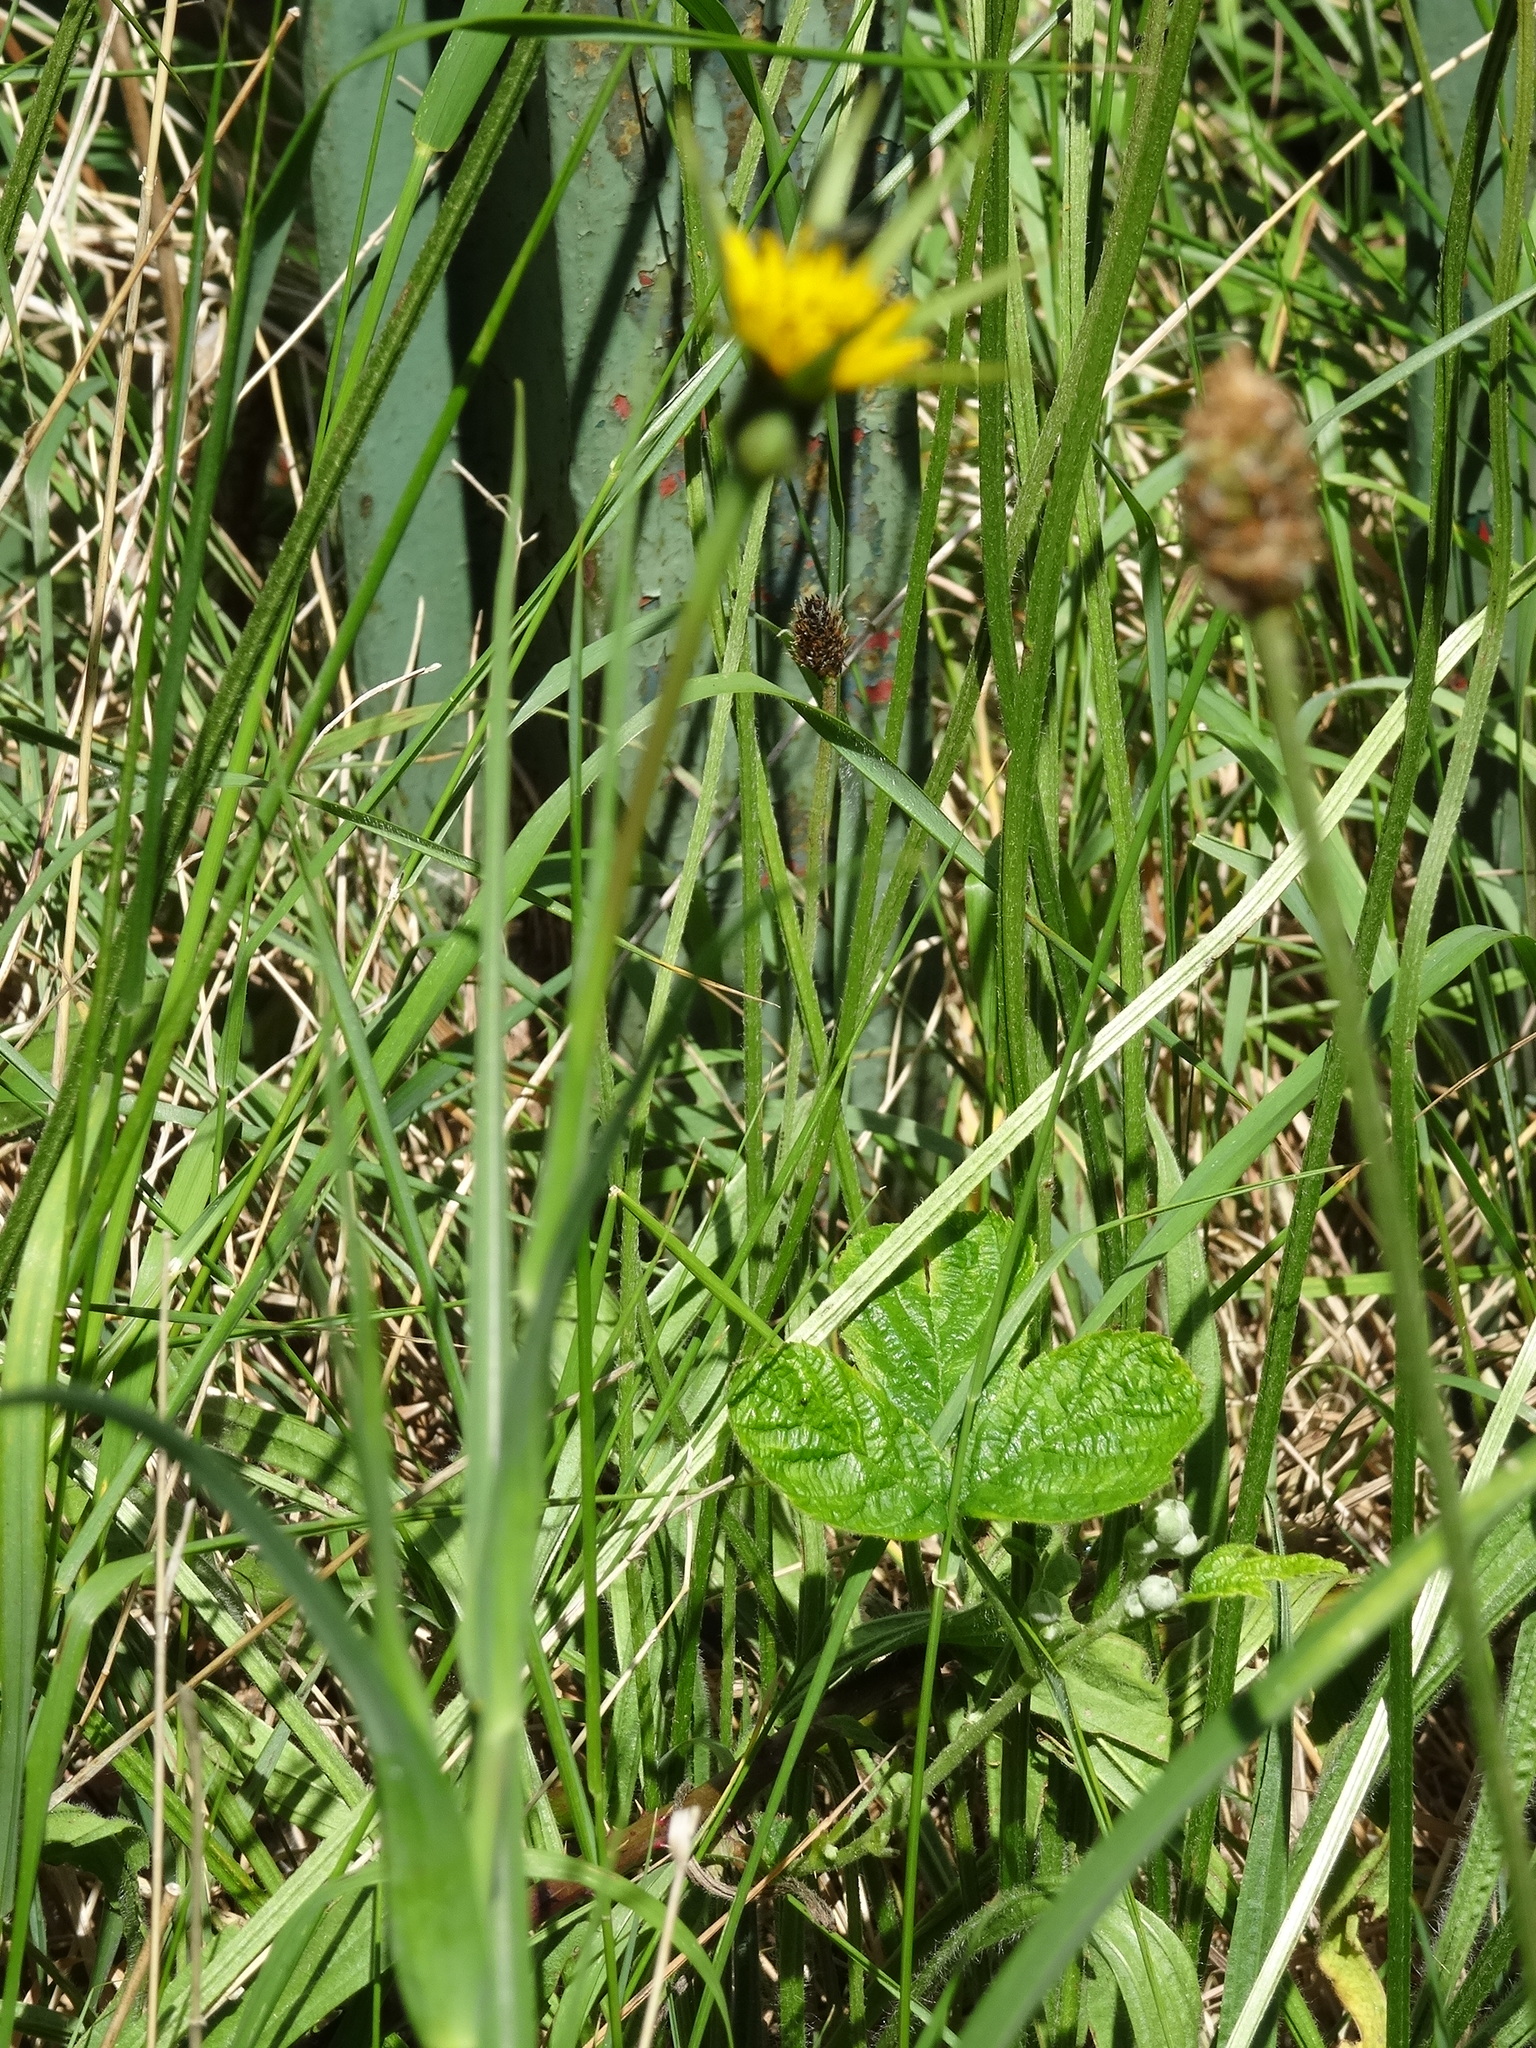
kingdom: Plantae
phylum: Tracheophyta
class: Magnoliopsida
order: Asterales
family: Asteraceae
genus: Tragopogon
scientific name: Tragopogon pratensis
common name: Goat's-beard
